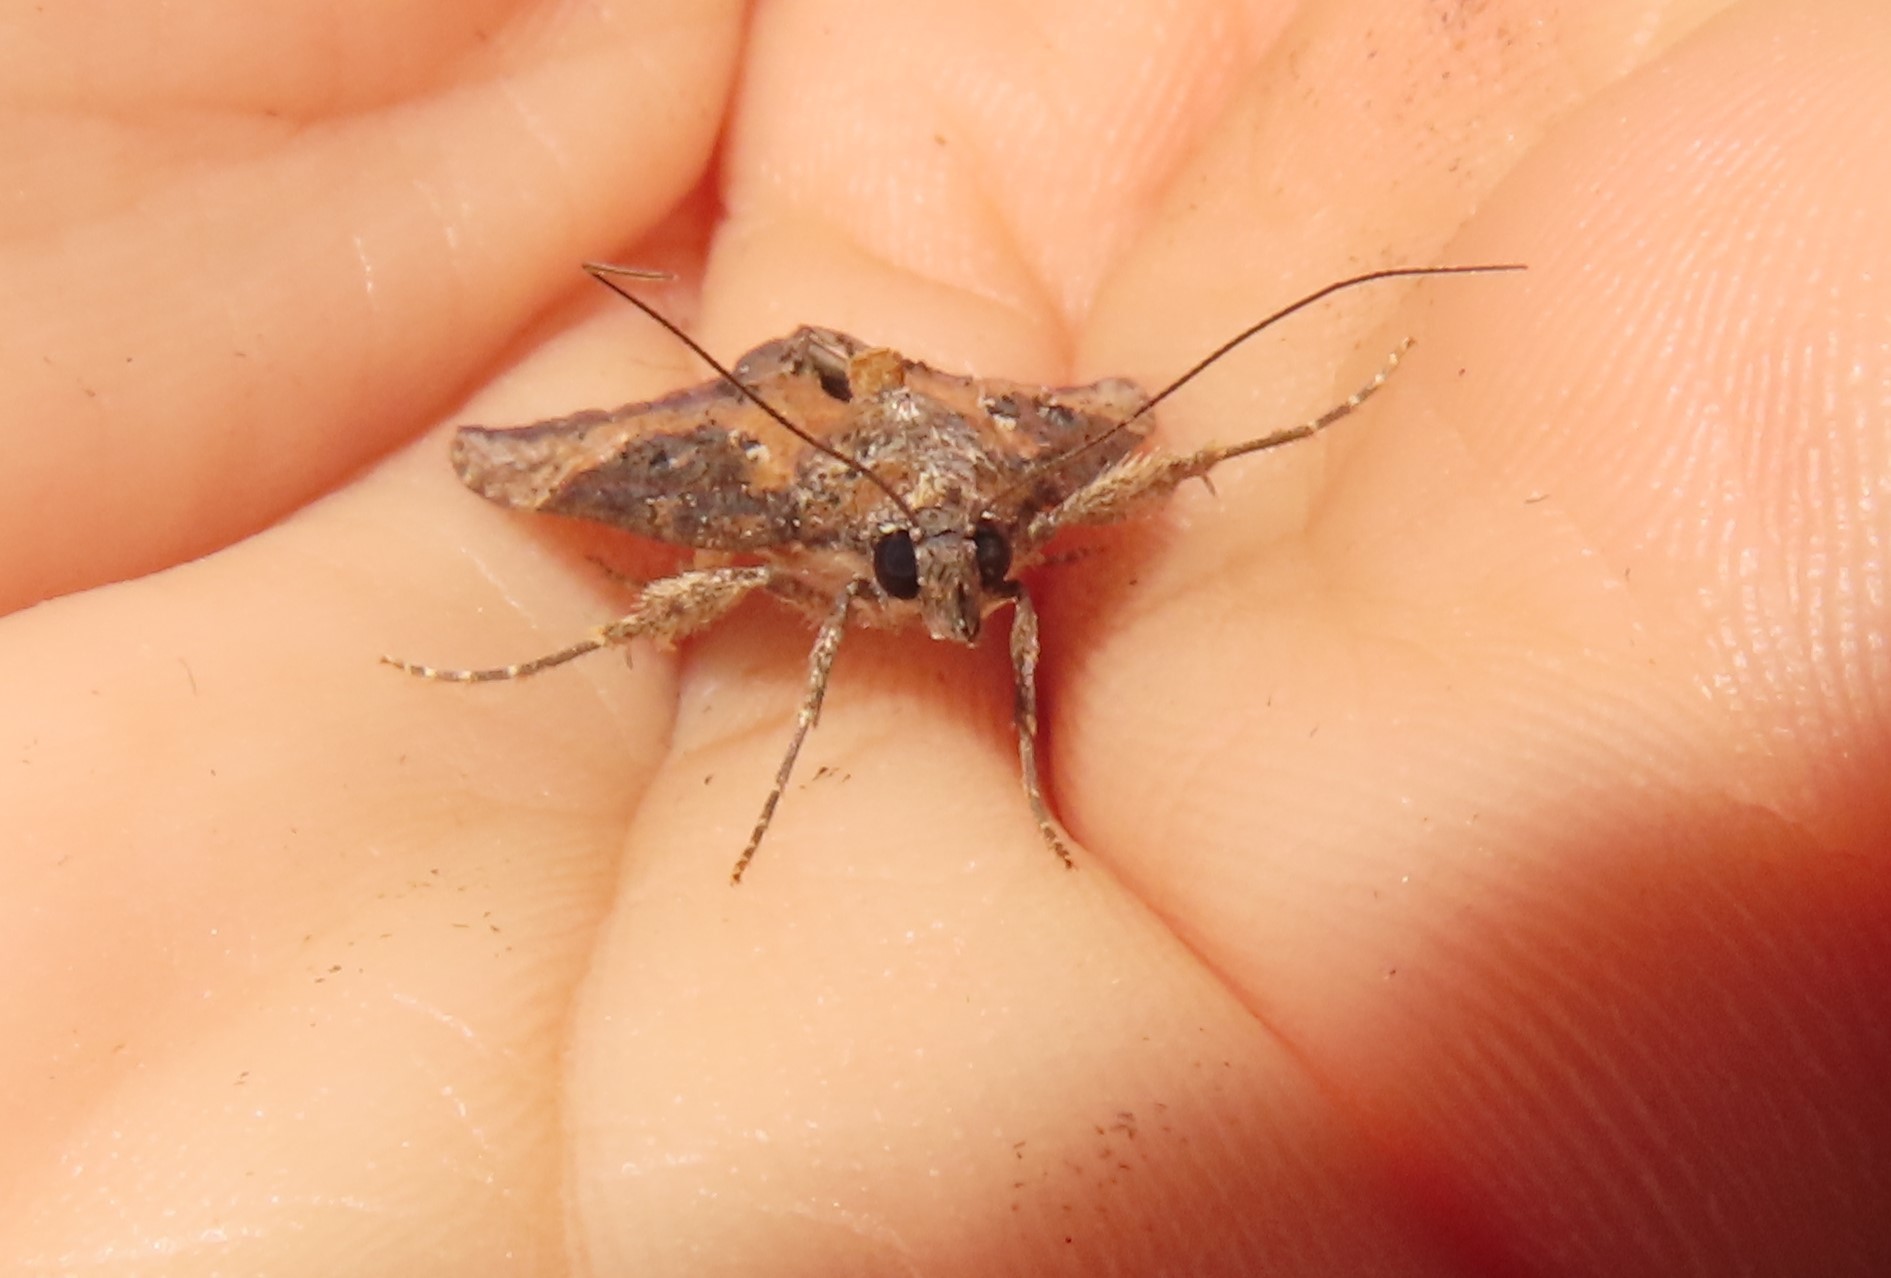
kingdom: Animalia
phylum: Arthropoda
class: Insecta
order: Lepidoptera
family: Erebidae
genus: Hypena
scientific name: Hypena scabra
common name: Green cloverworm
